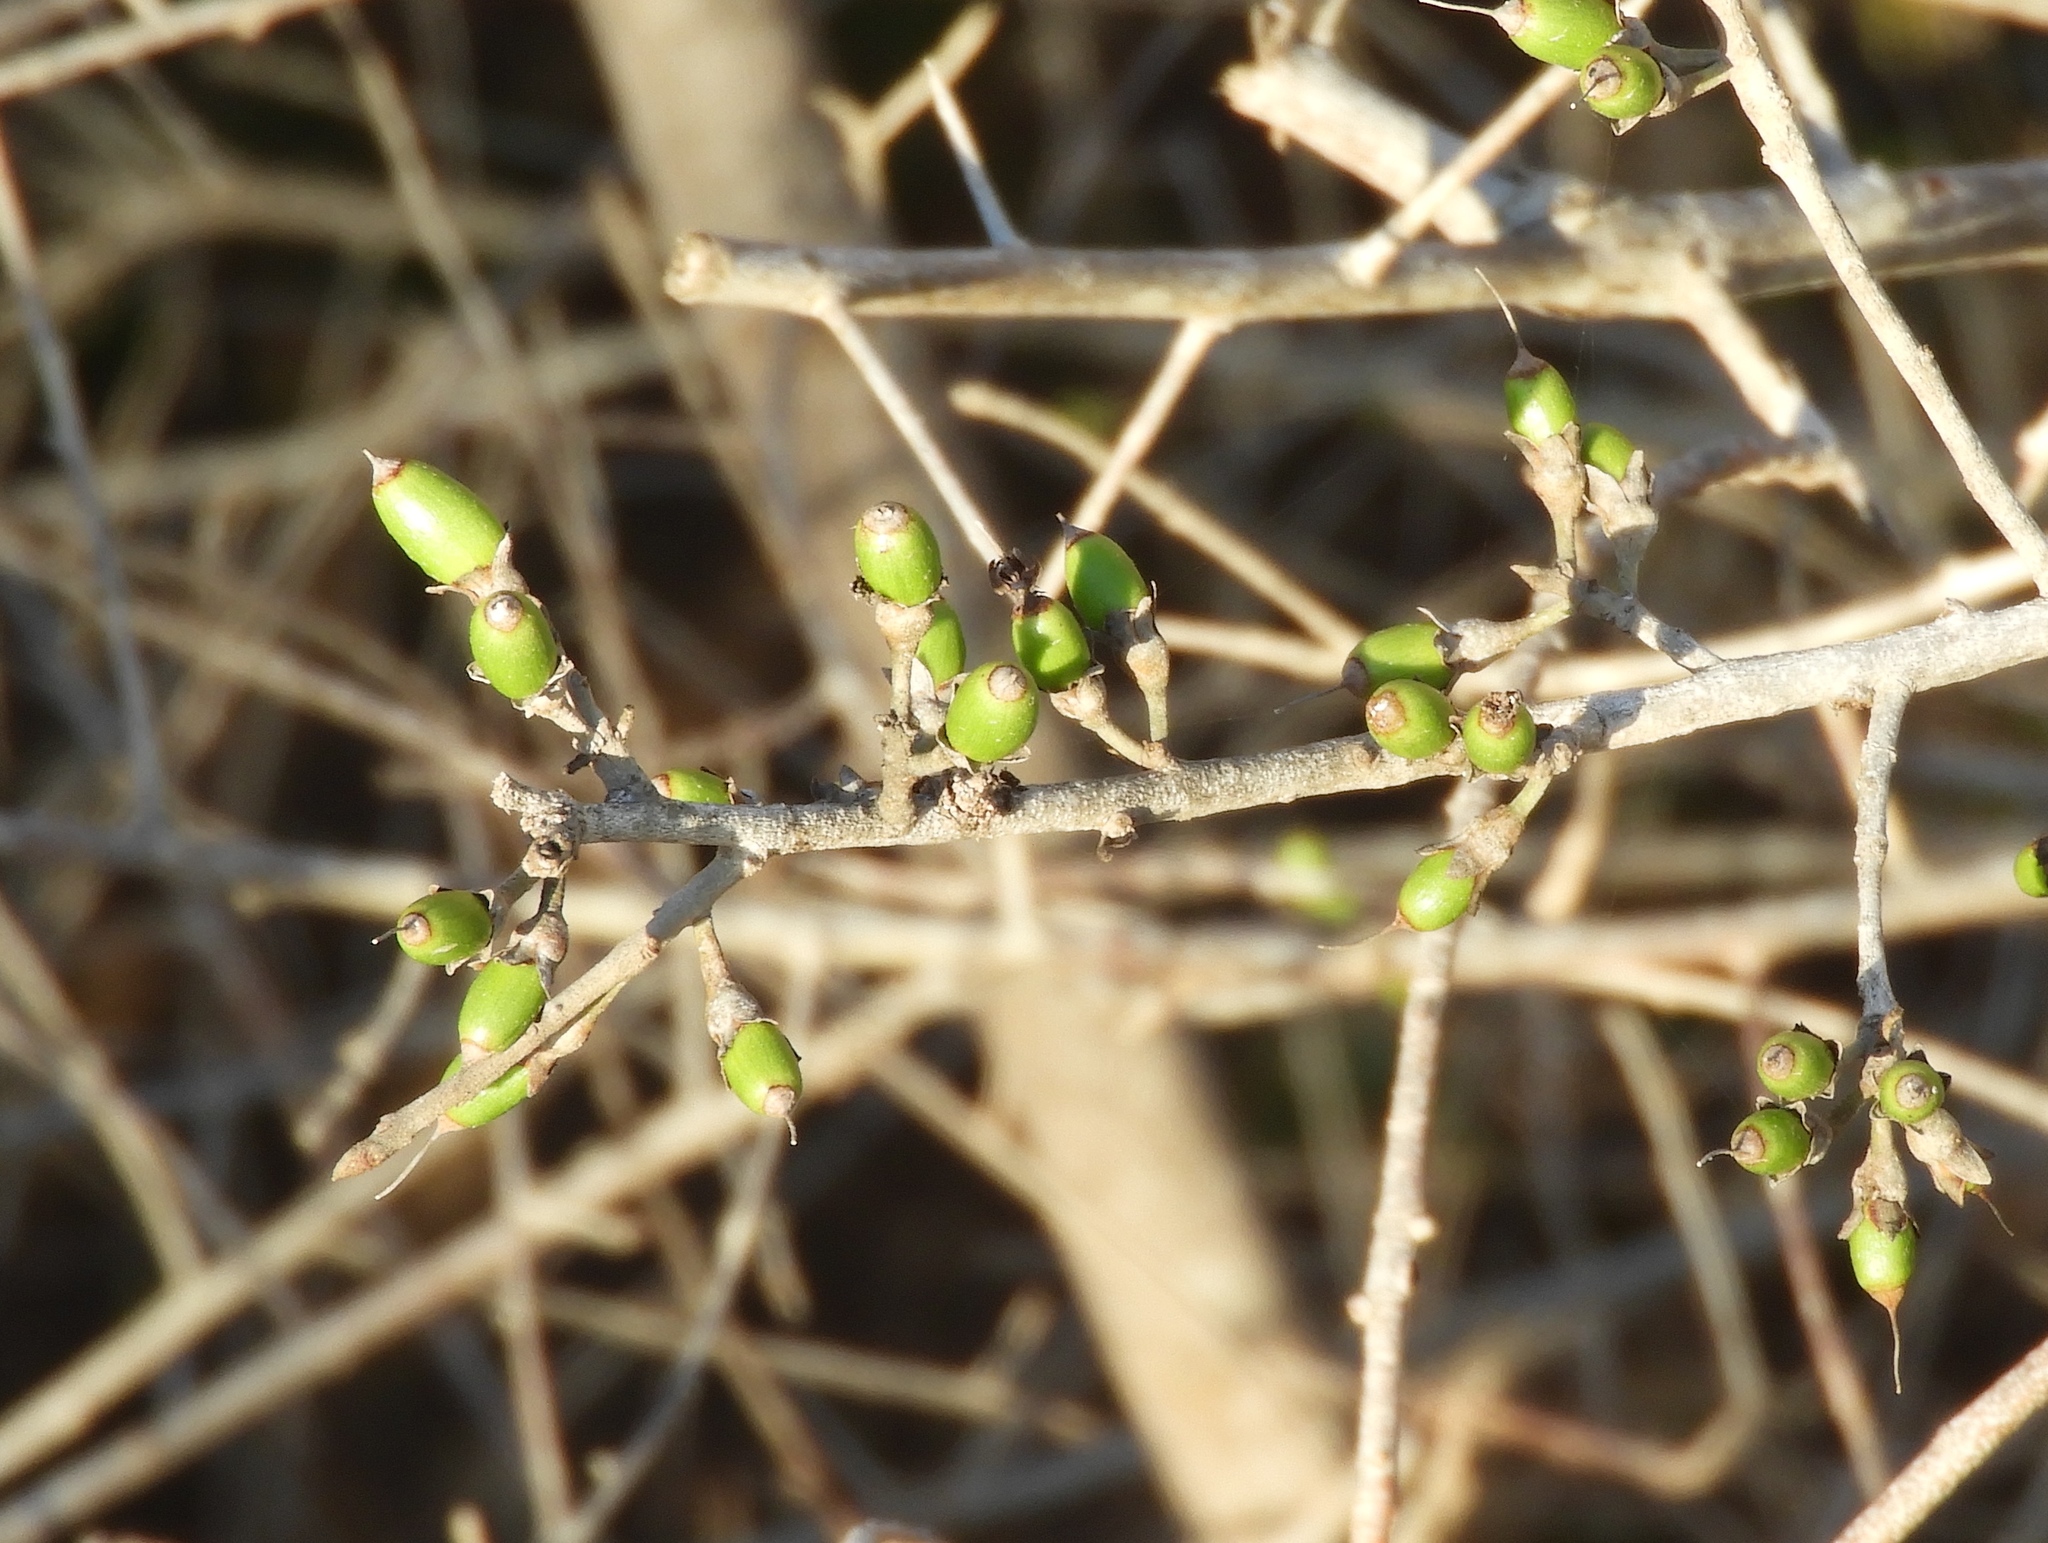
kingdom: Plantae
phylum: Tracheophyta
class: Magnoliopsida
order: Malpighiales
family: Erythroxylaceae
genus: Erythroxylum
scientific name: Erythroxylum mexicanum
